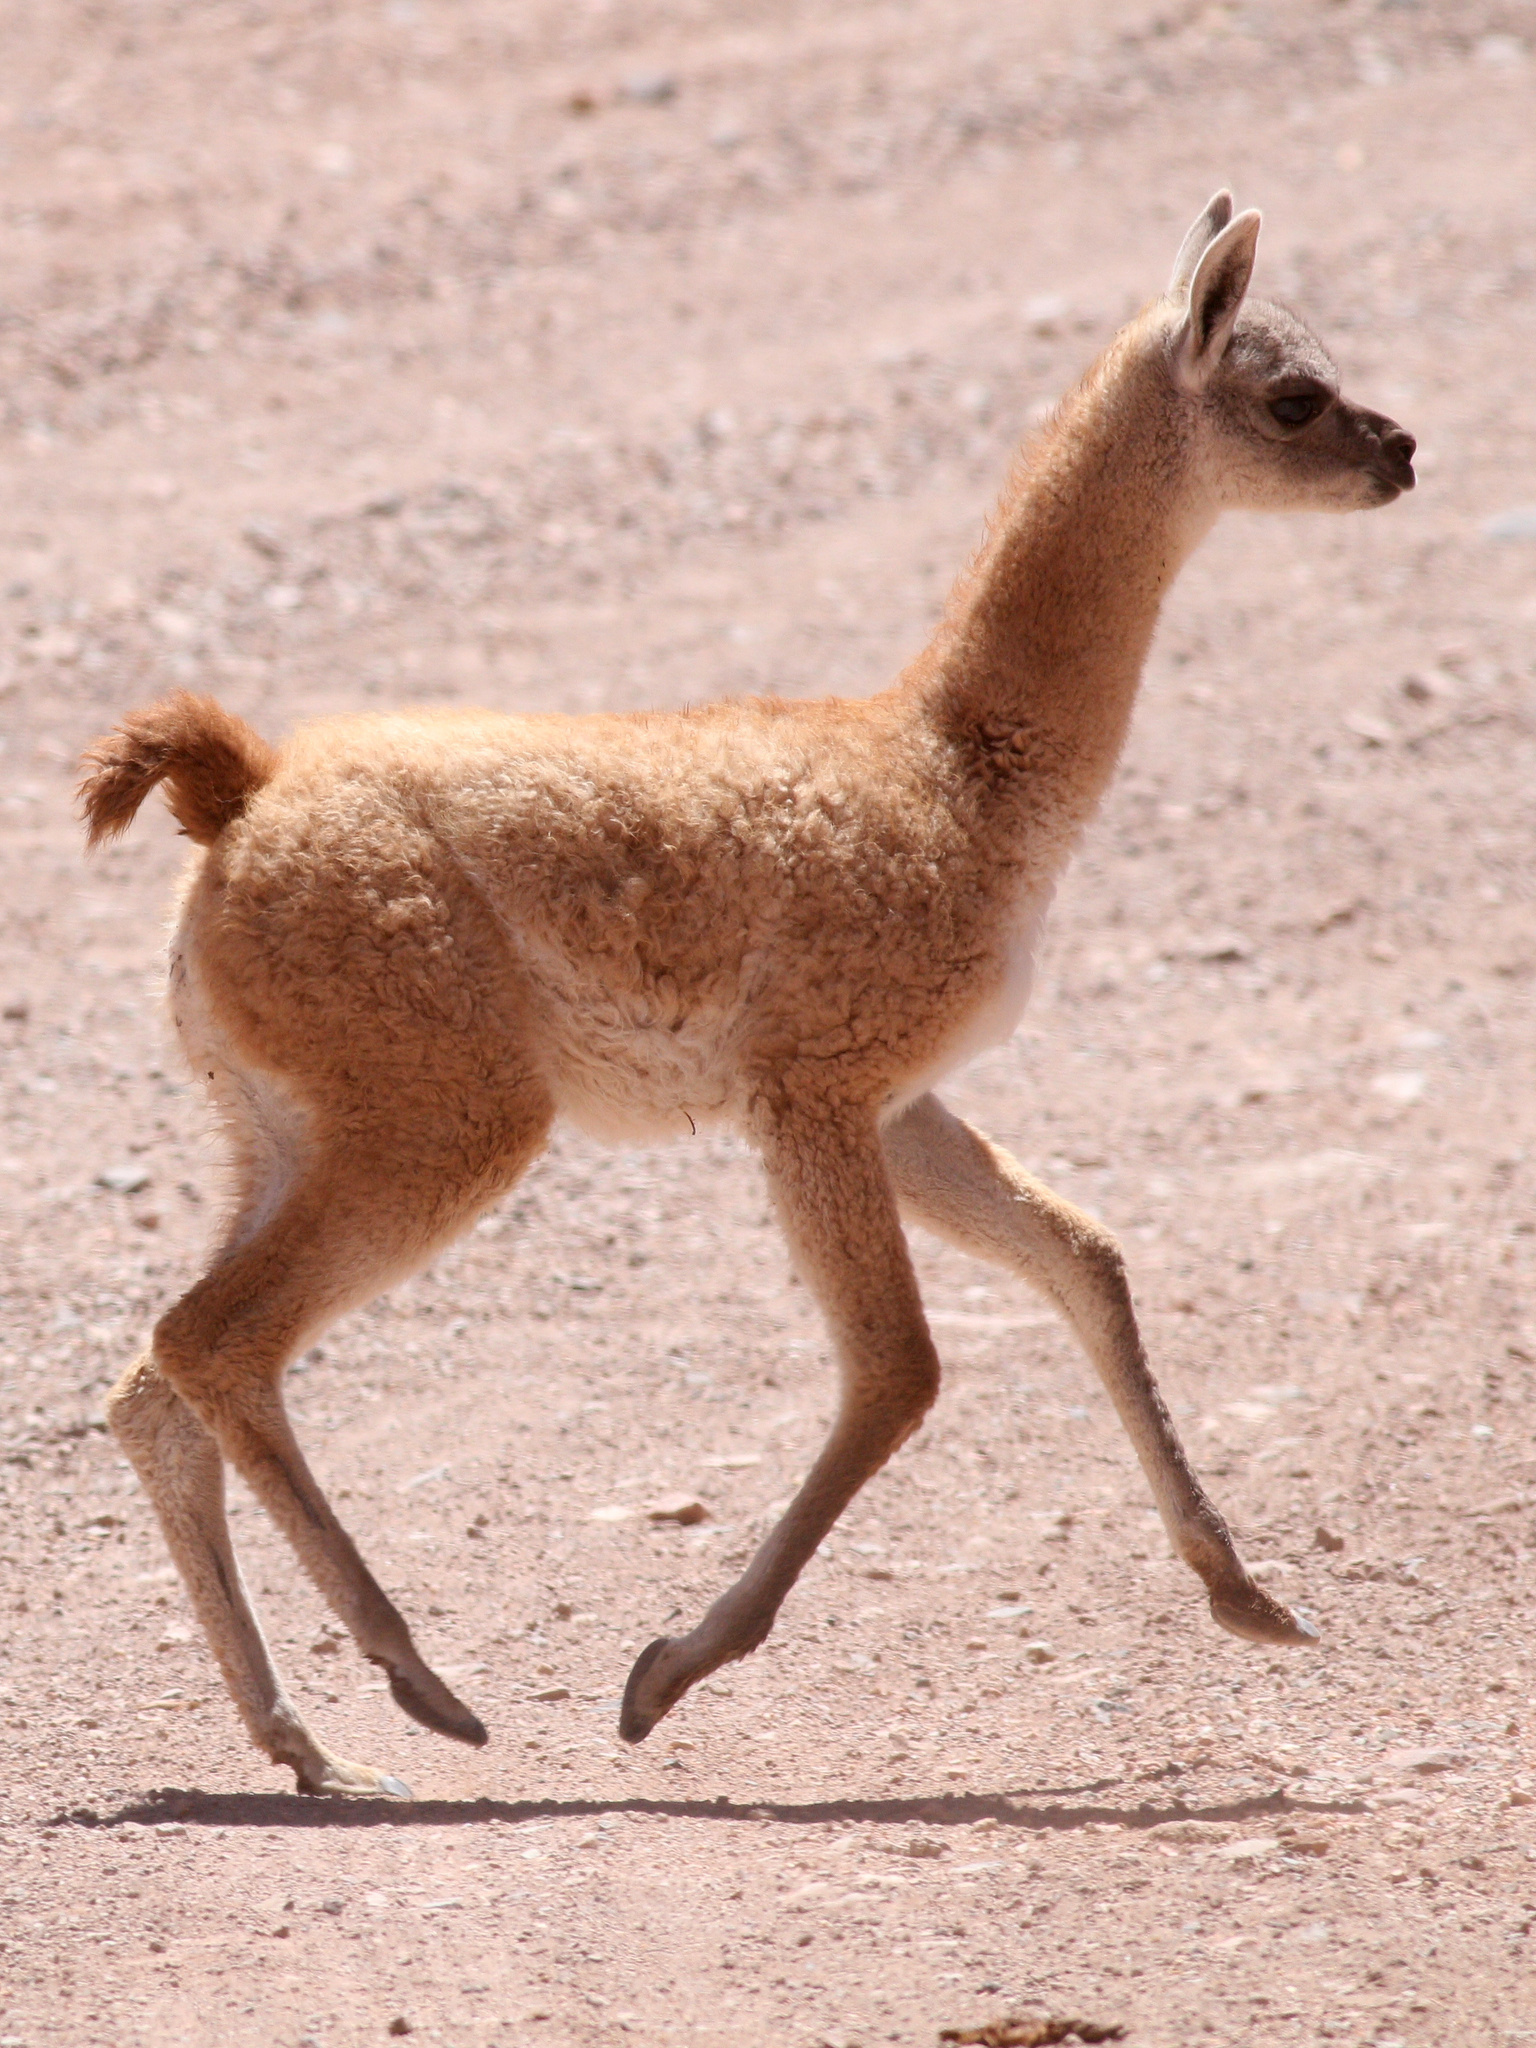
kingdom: Animalia
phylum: Chordata
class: Mammalia
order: Artiodactyla
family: Camelidae
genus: Lama
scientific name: Lama glama
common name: Llama
